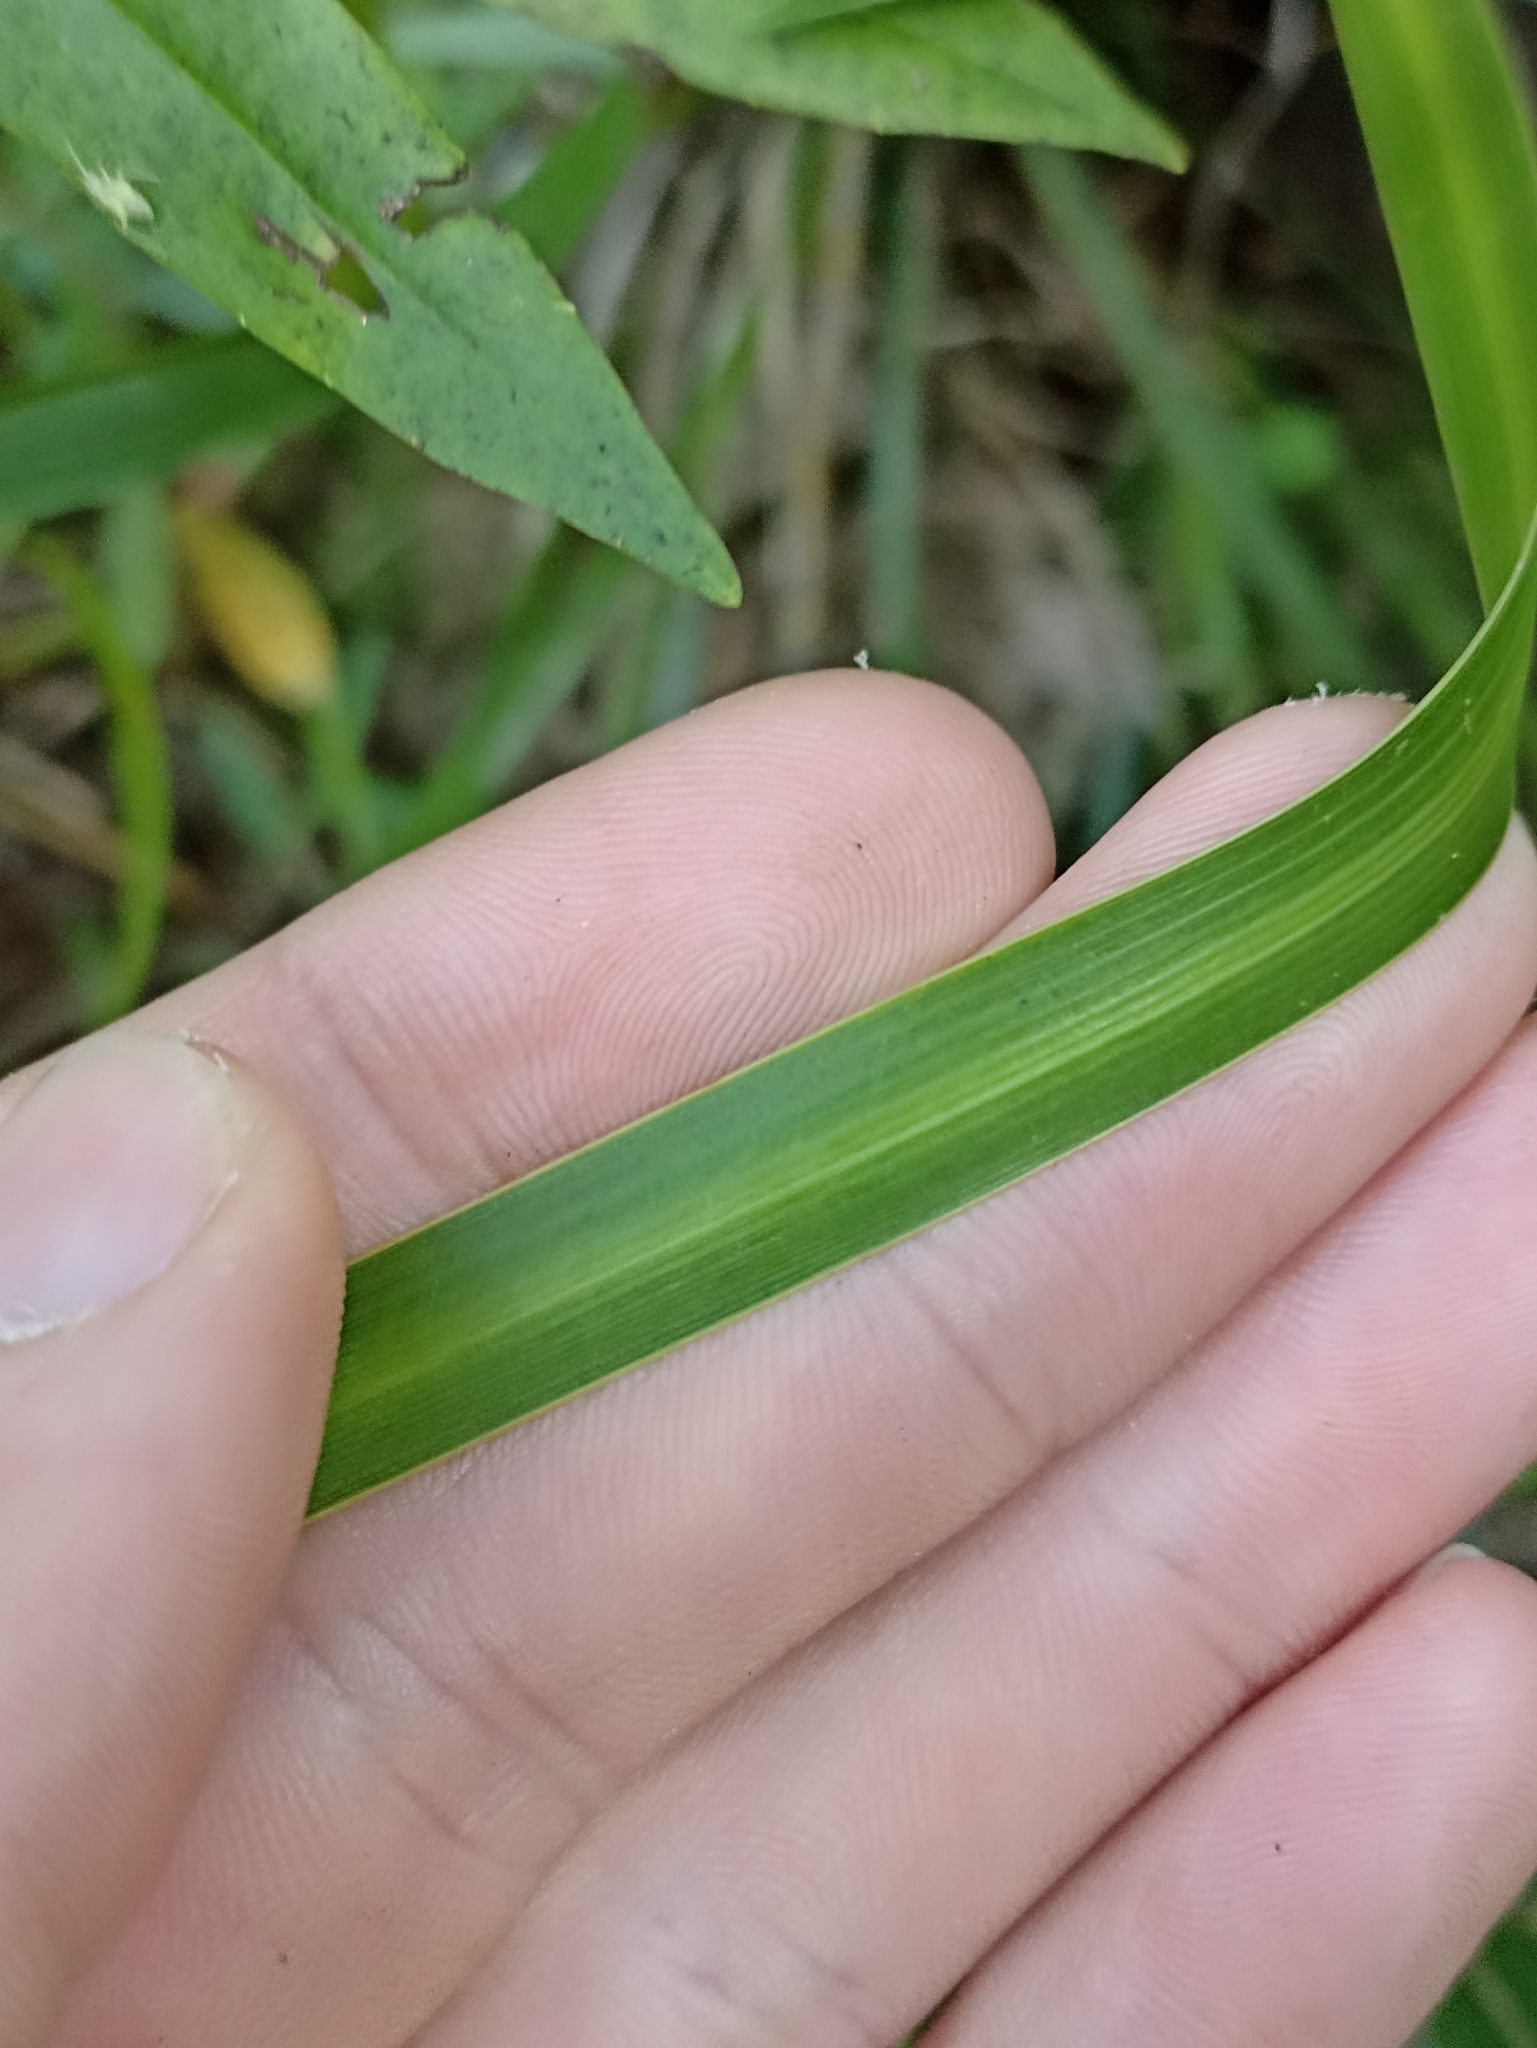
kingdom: Plantae
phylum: Tracheophyta
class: Liliopsida
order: Asparagales
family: Iridaceae
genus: Libertia
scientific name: Libertia grandiflora
